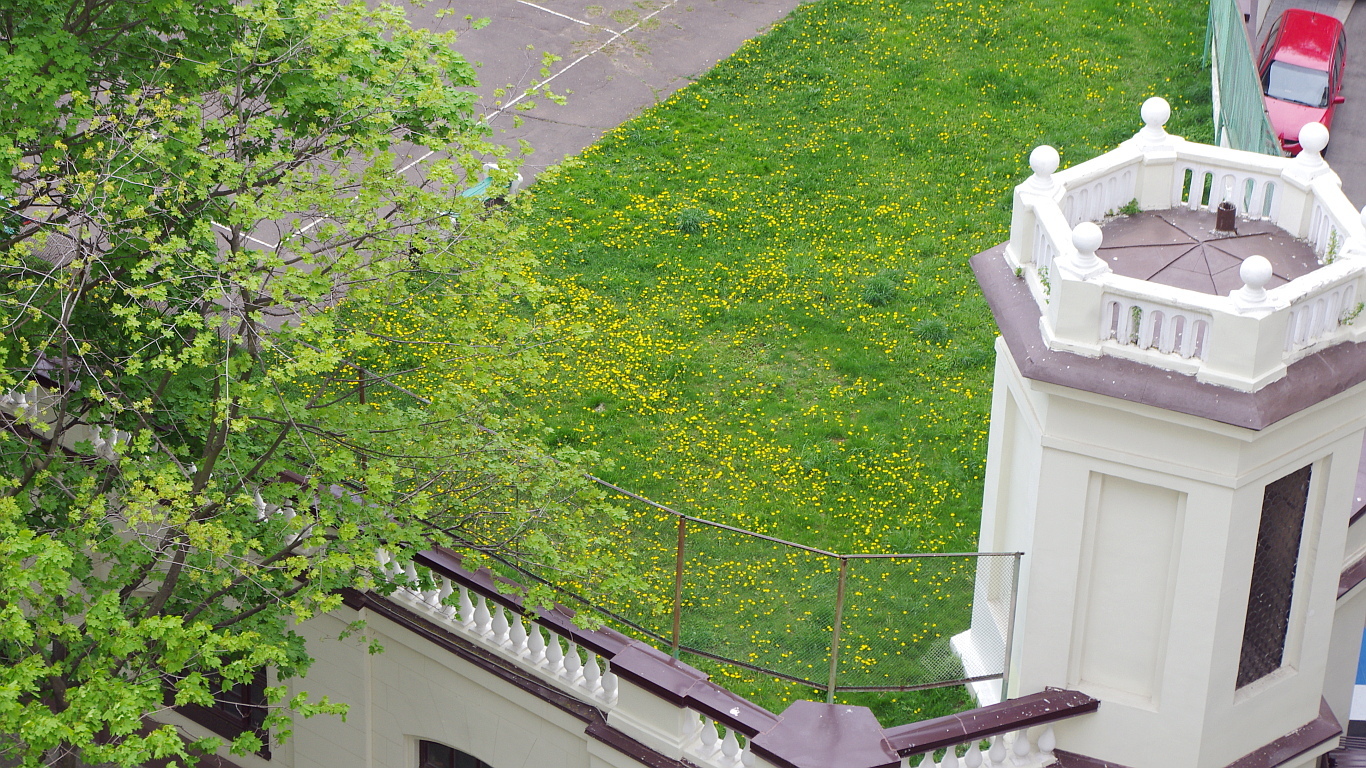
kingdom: Plantae
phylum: Tracheophyta
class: Magnoliopsida
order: Asterales
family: Asteraceae
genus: Taraxacum
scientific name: Taraxacum officinale
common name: Common dandelion
